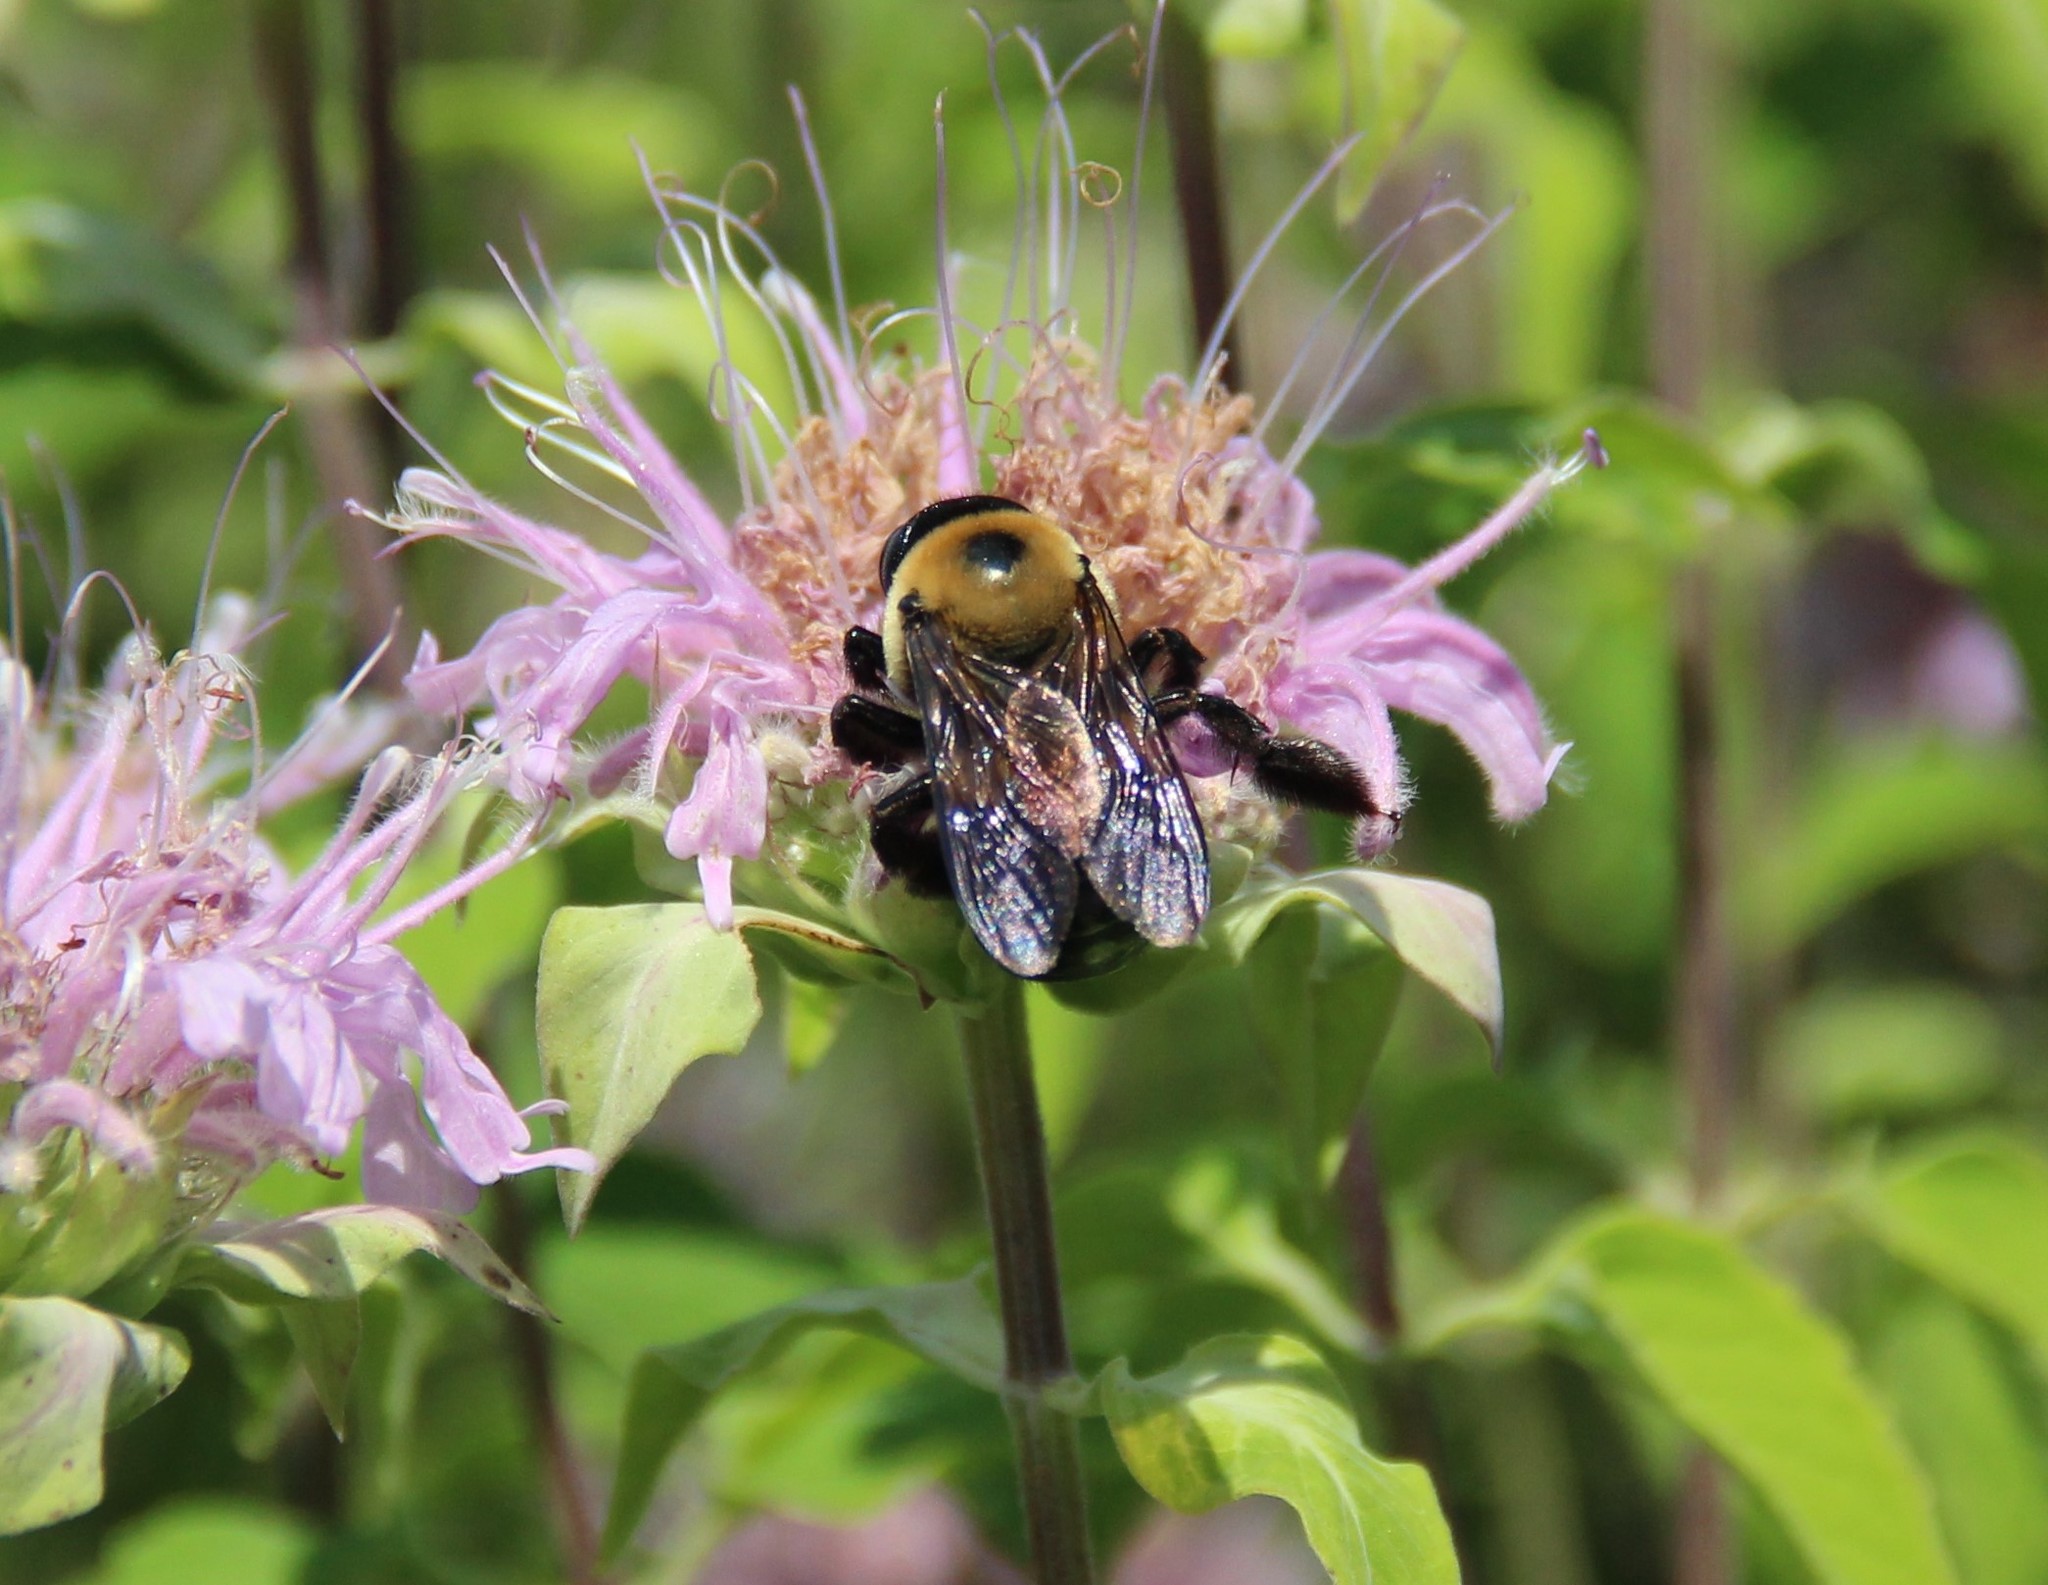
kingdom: Animalia
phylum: Arthropoda
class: Insecta
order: Hymenoptera
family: Apidae
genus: Xylocopa
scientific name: Xylocopa virginica
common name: Carpenter bee
